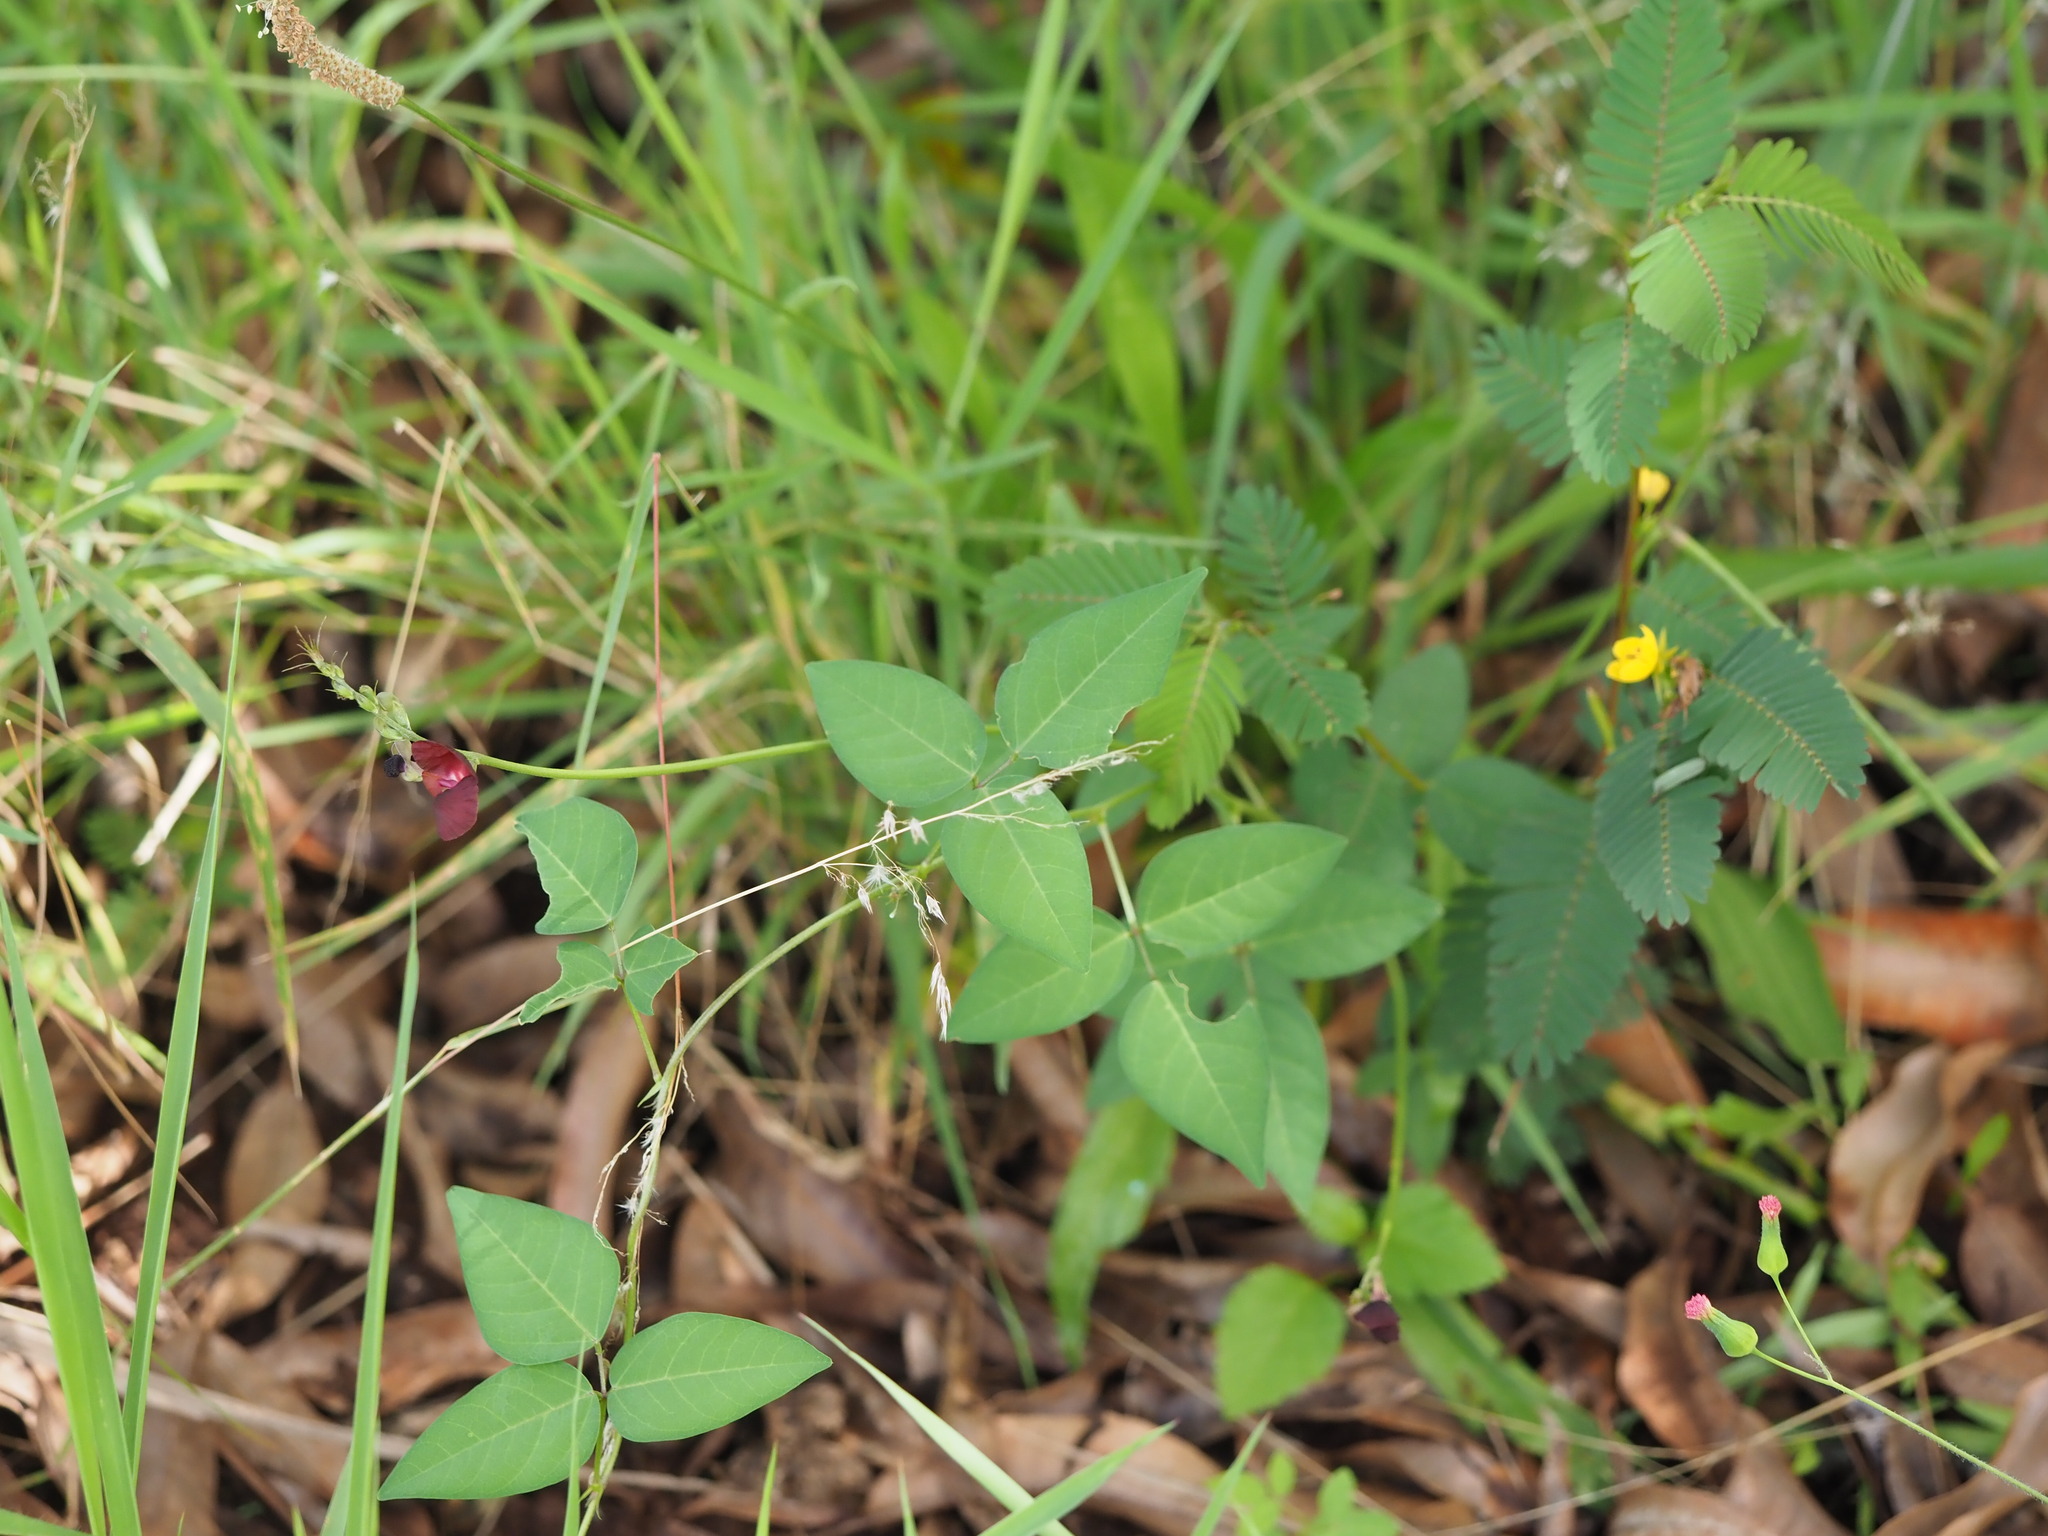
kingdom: Plantae
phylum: Tracheophyta
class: Magnoliopsida
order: Fabales
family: Fabaceae
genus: Macroptilium
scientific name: Macroptilium lathyroides
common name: Wild bushbean
